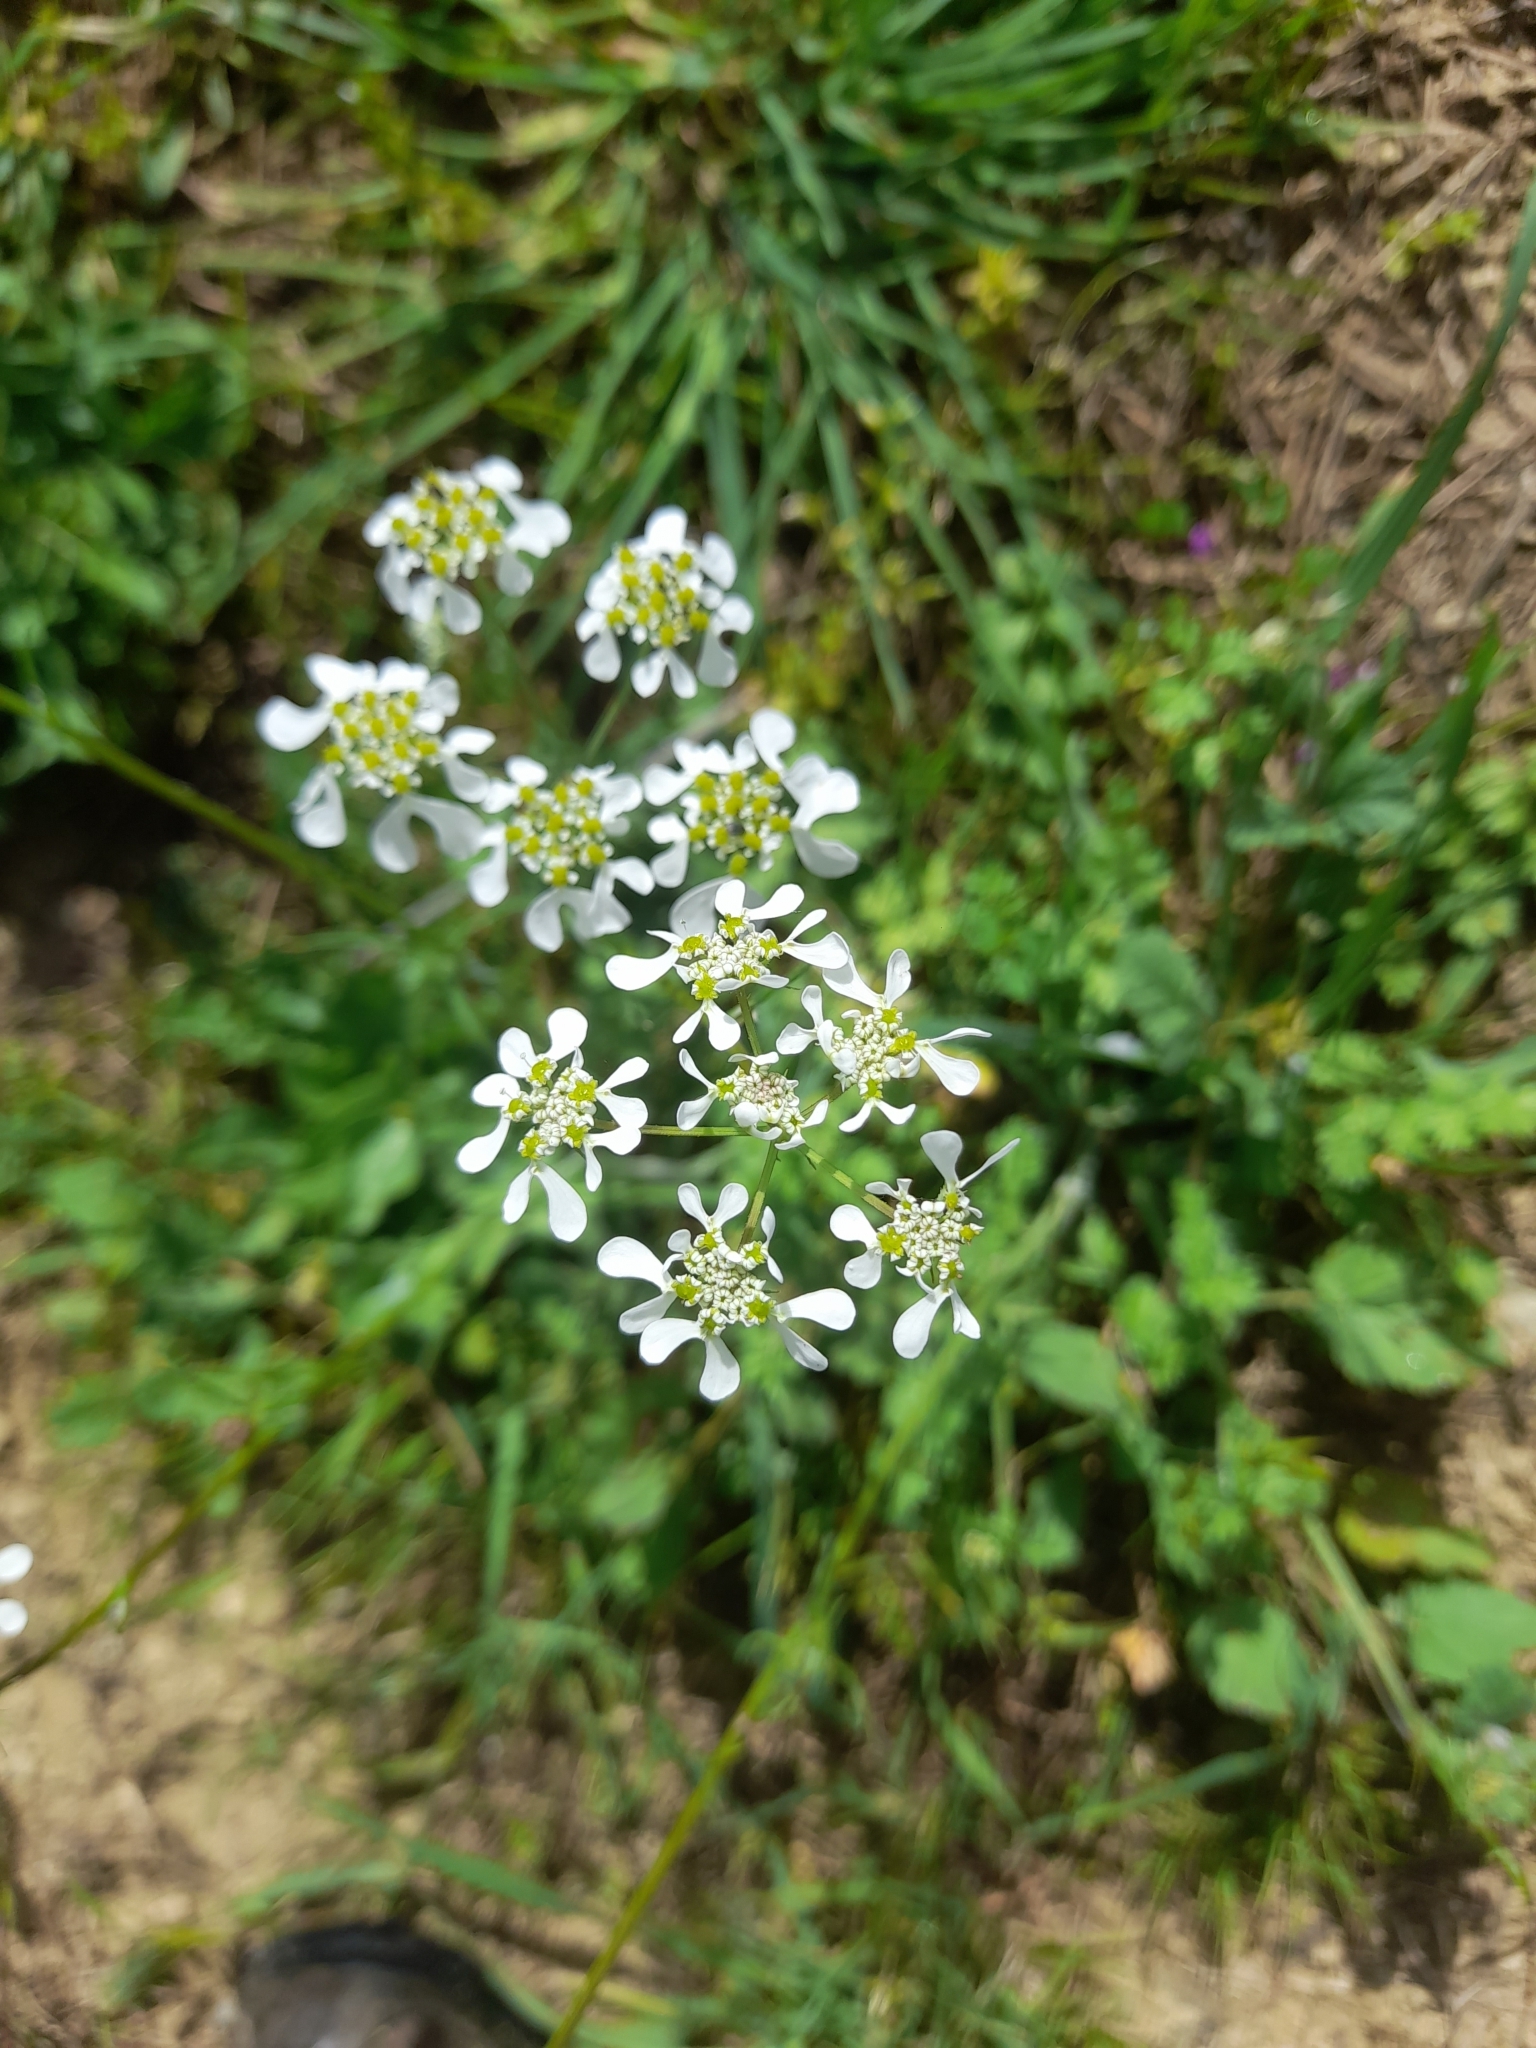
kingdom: Plantae
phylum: Tracheophyta
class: Magnoliopsida
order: Apiales
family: Apiaceae
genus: Tordylium
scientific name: Tordylium apulum
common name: Mediterranean hartwort
